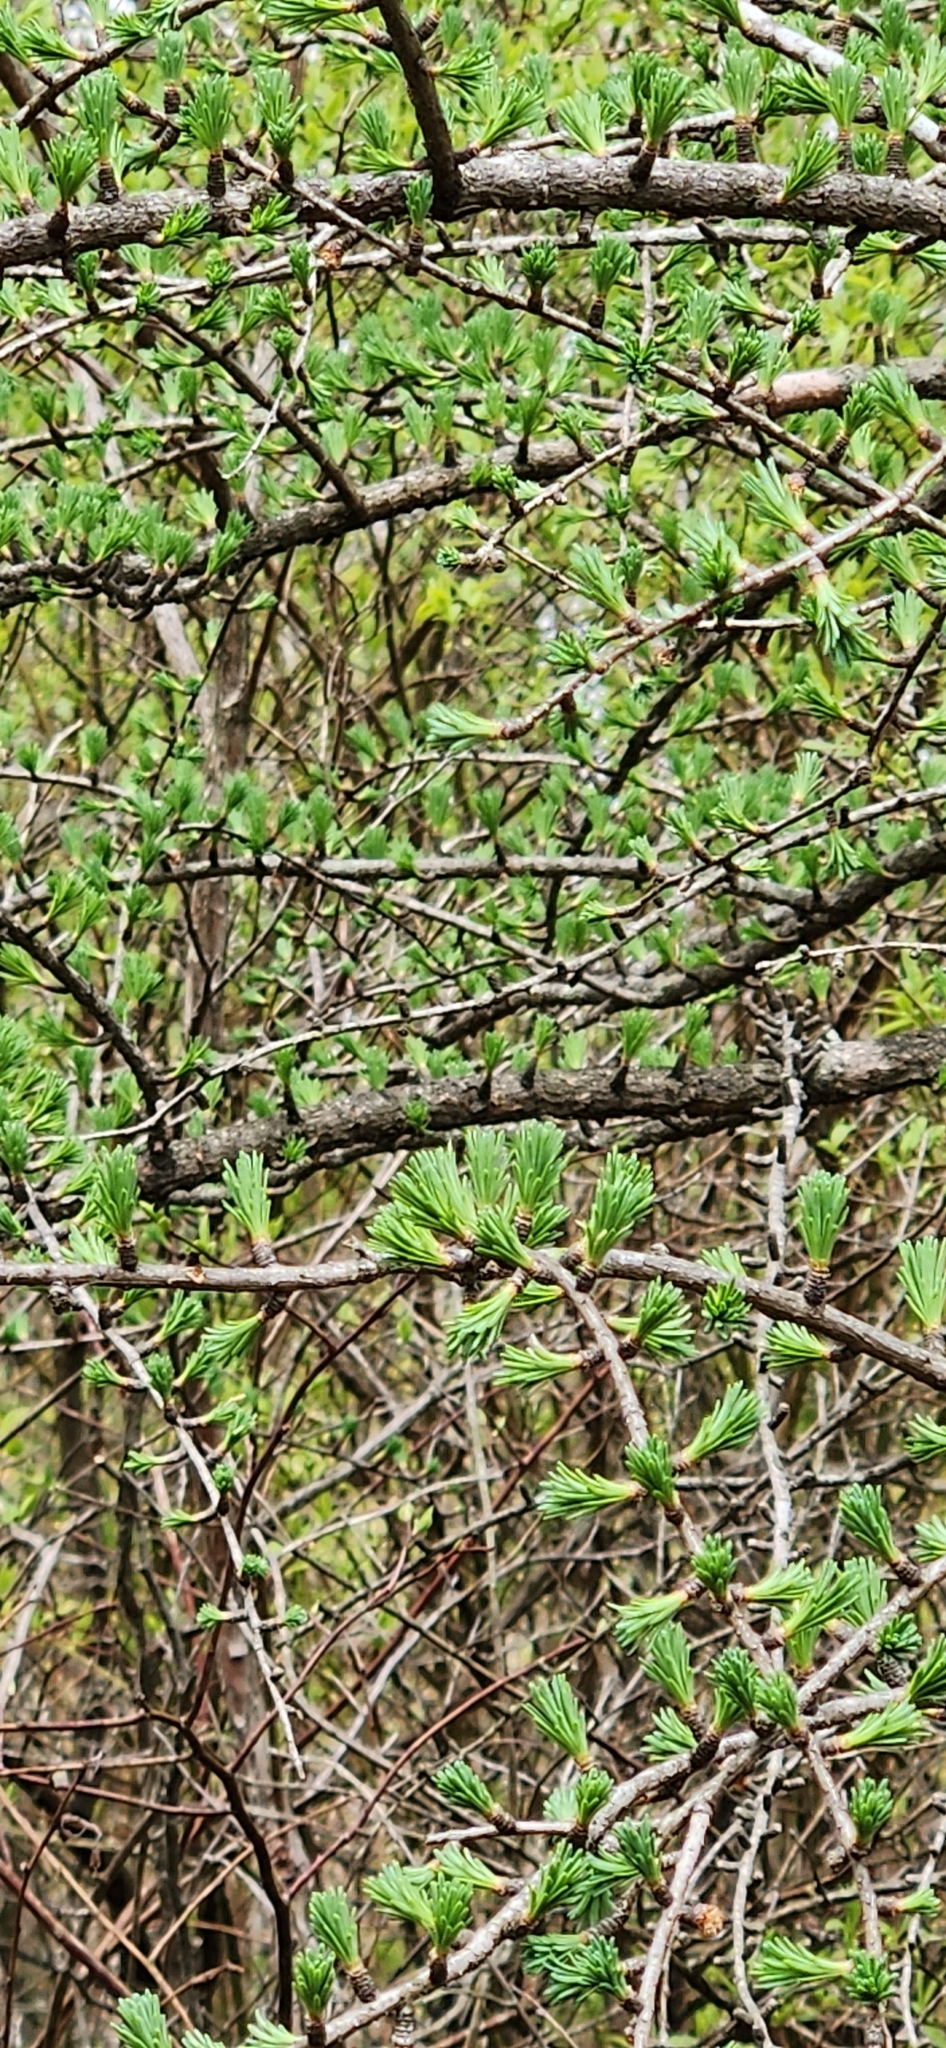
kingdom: Plantae
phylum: Tracheophyta
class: Pinopsida
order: Pinales
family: Pinaceae
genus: Larix
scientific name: Larix laricina
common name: American larch
